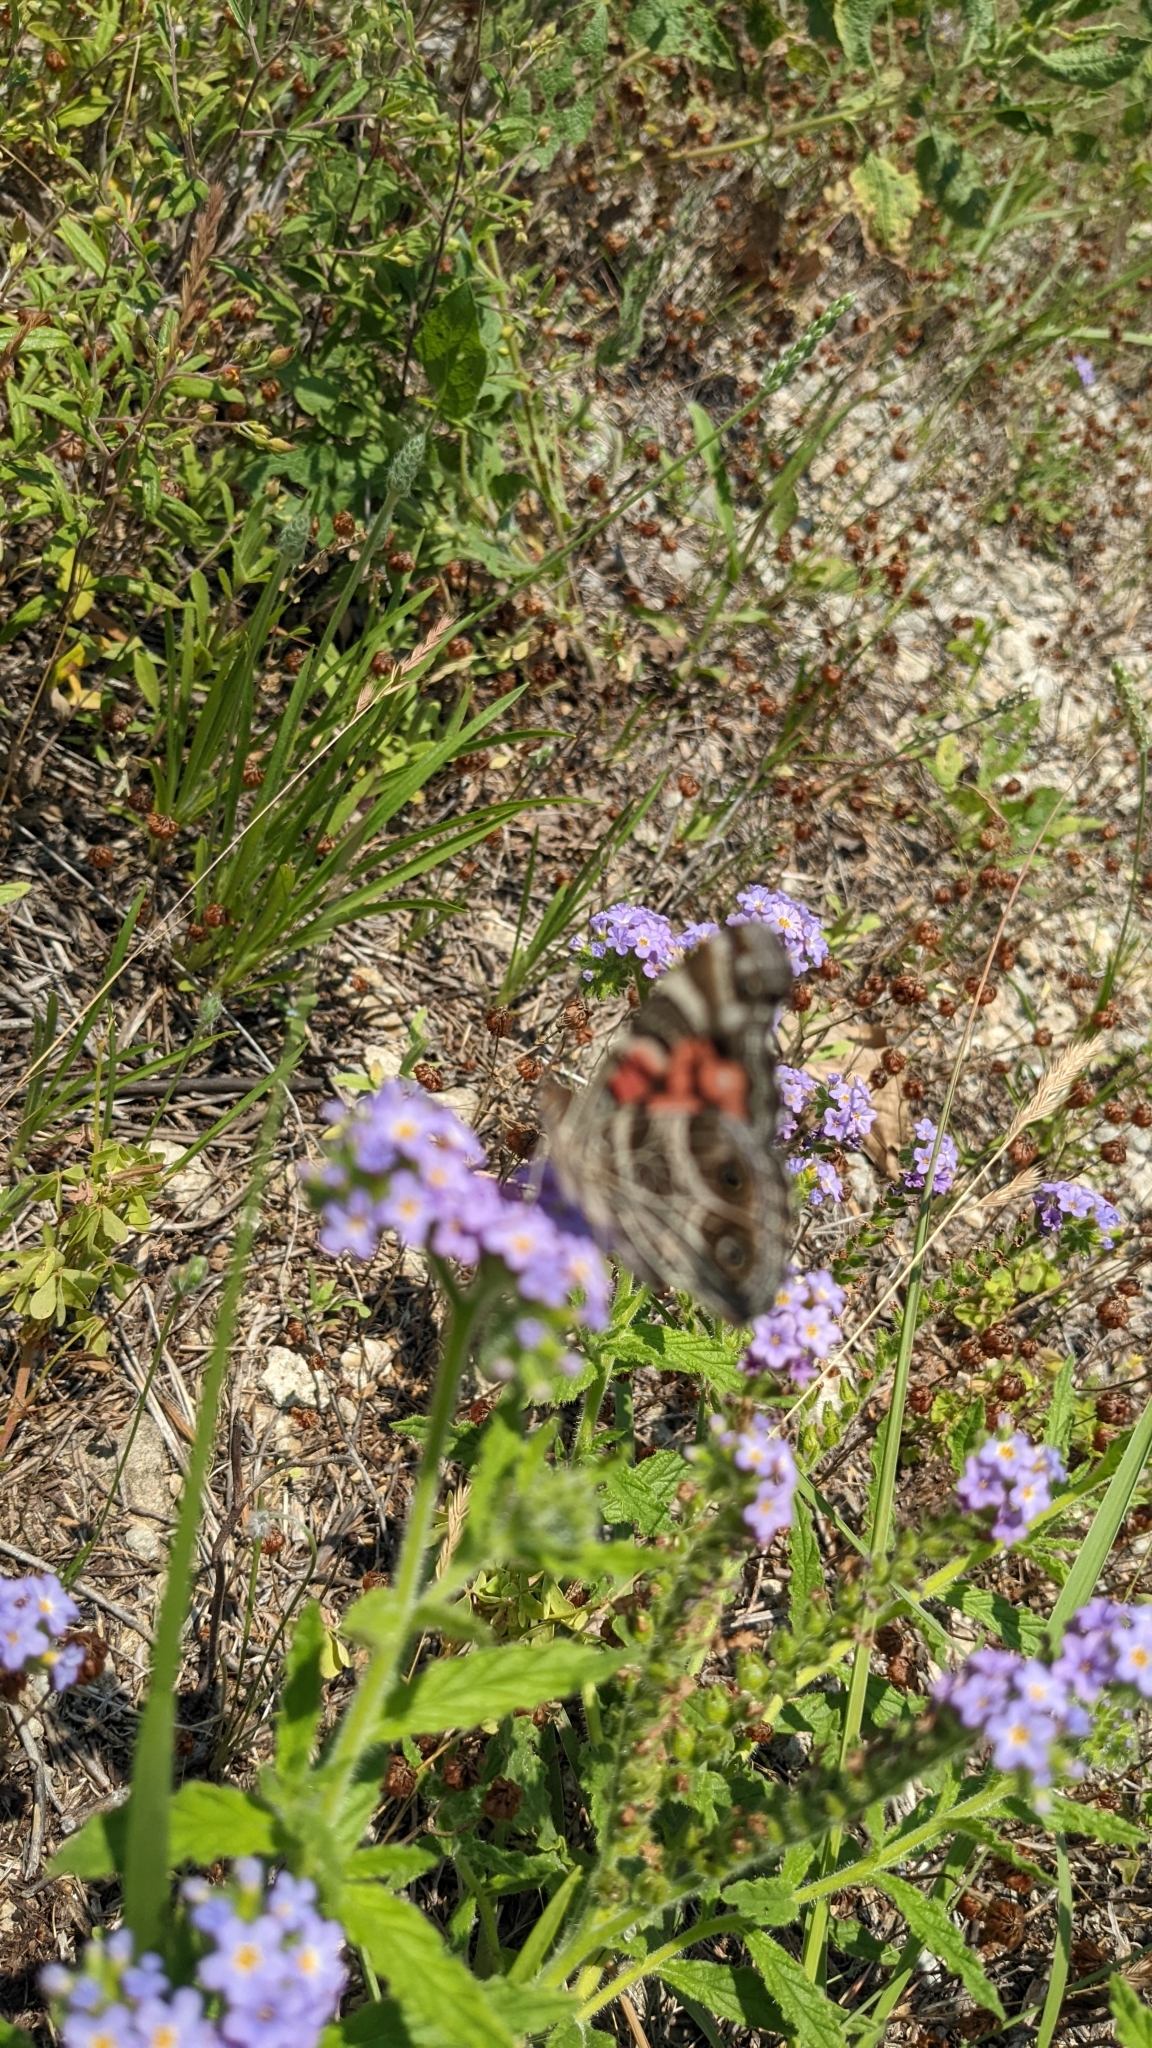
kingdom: Animalia
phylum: Arthropoda
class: Insecta
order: Lepidoptera
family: Nymphalidae
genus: Vanessa
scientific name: Vanessa virginiensis
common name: American lady
